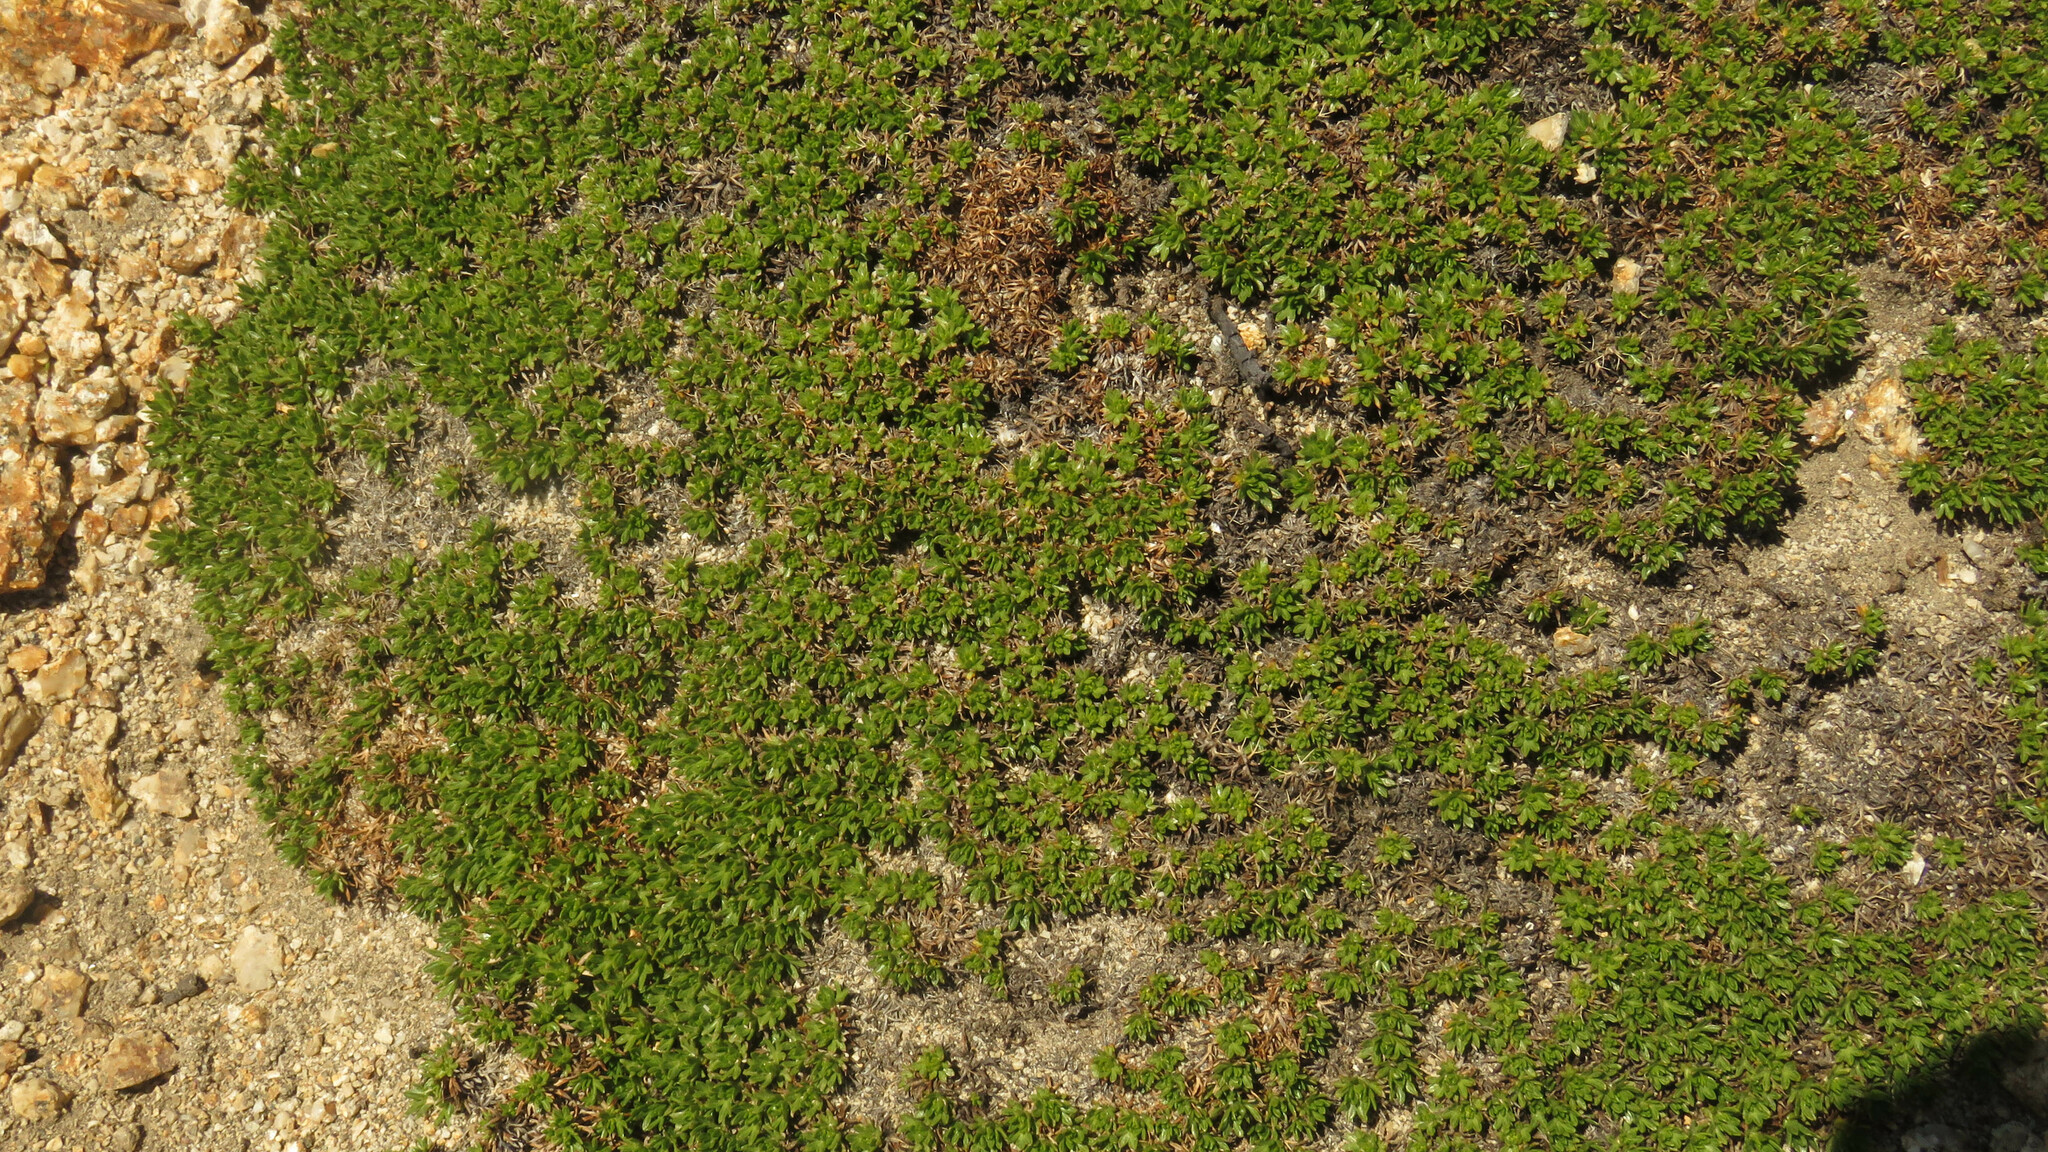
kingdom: Plantae
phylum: Tracheophyta
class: Magnoliopsida
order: Apiales
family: Apiaceae
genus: Azorella
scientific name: Azorella nivalis
